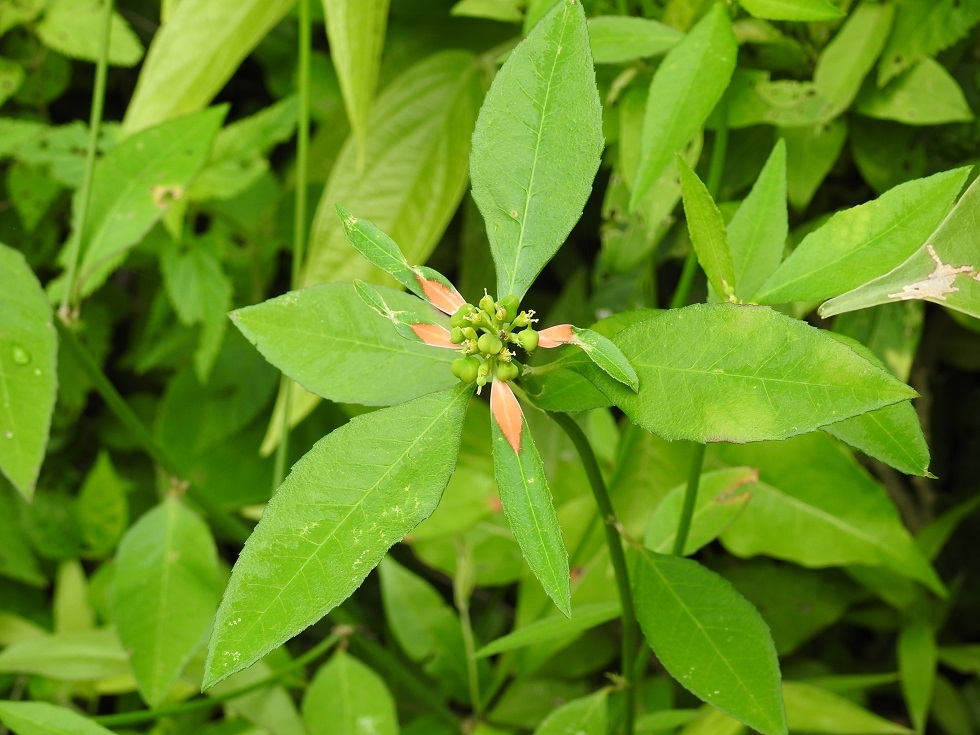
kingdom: Plantae
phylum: Tracheophyta
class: Magnoliopsida
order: Malpighiales
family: Euphorbiaceae
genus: Euphorbia
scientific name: Euphorbia heterophylla
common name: Mexican fireplant
